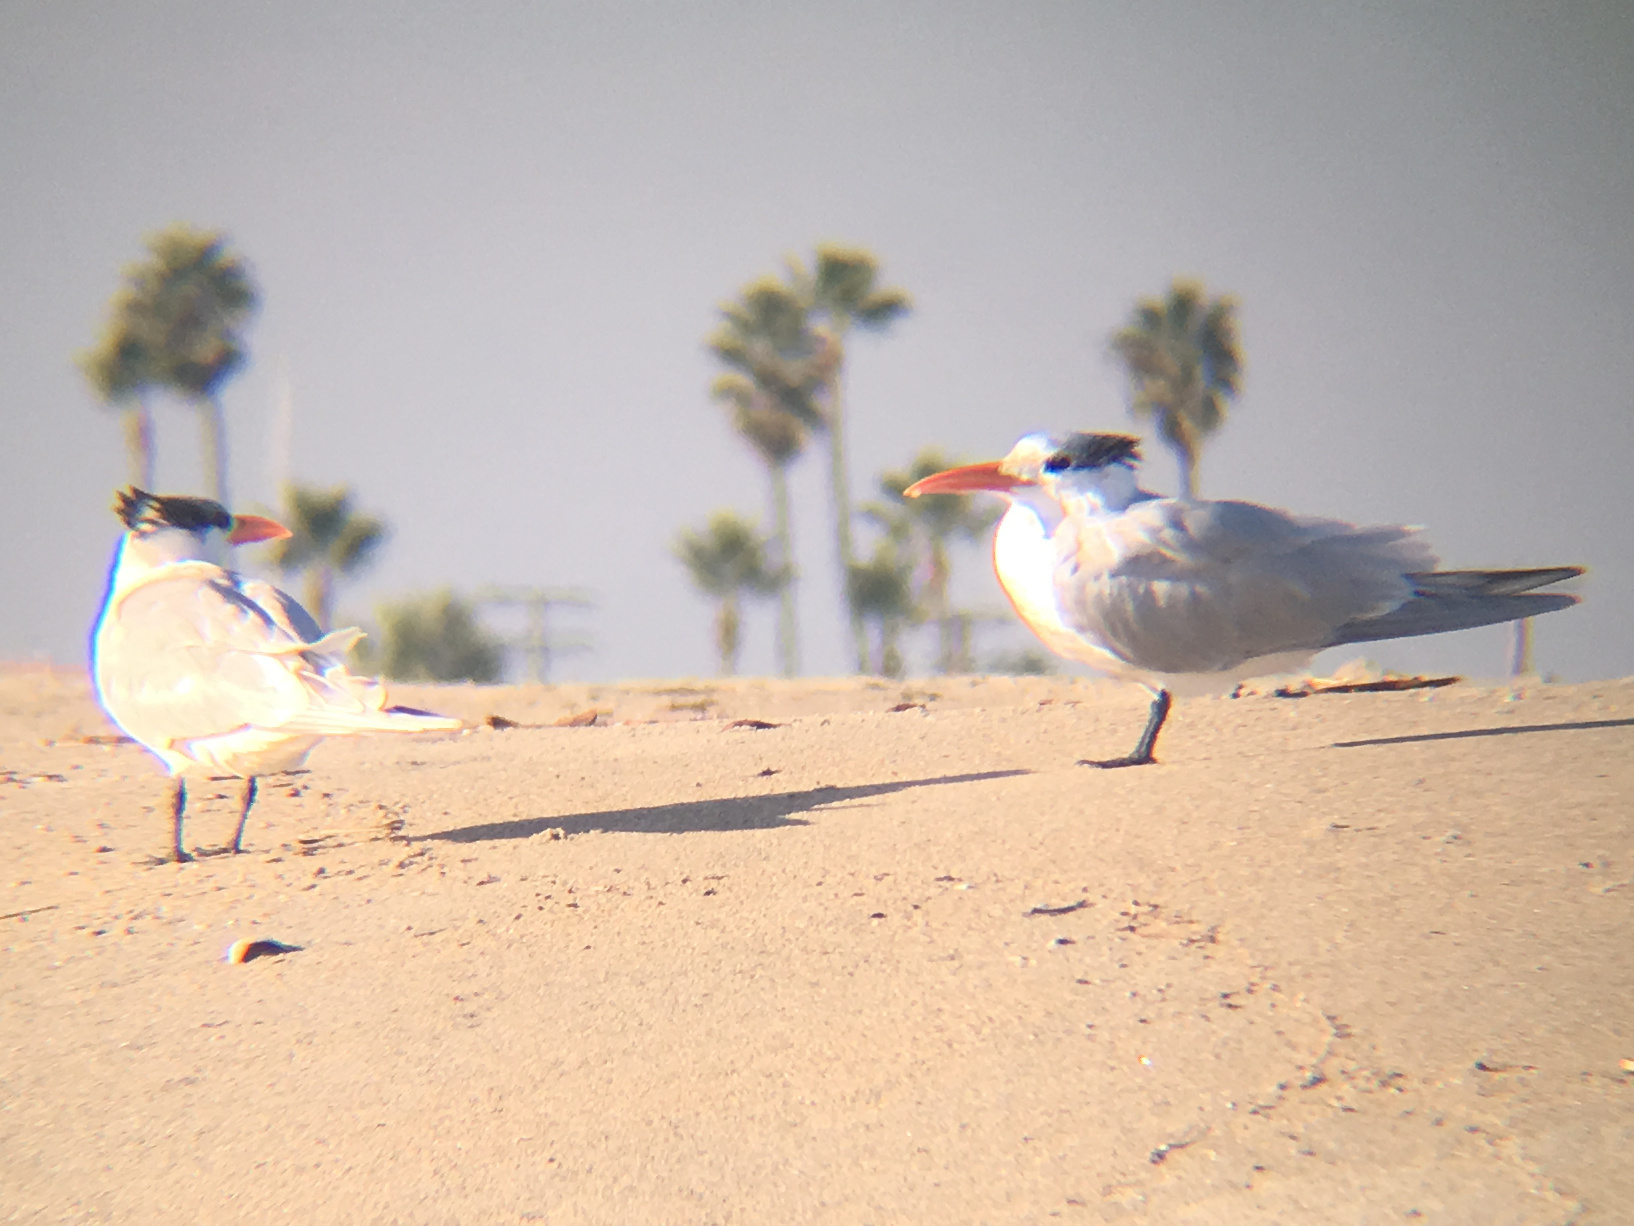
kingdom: Animalia
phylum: Chordata
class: Aves
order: Charadriiformes
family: Laridae
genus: Thalasseus
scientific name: Thalasseus maximus
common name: Royal tern
